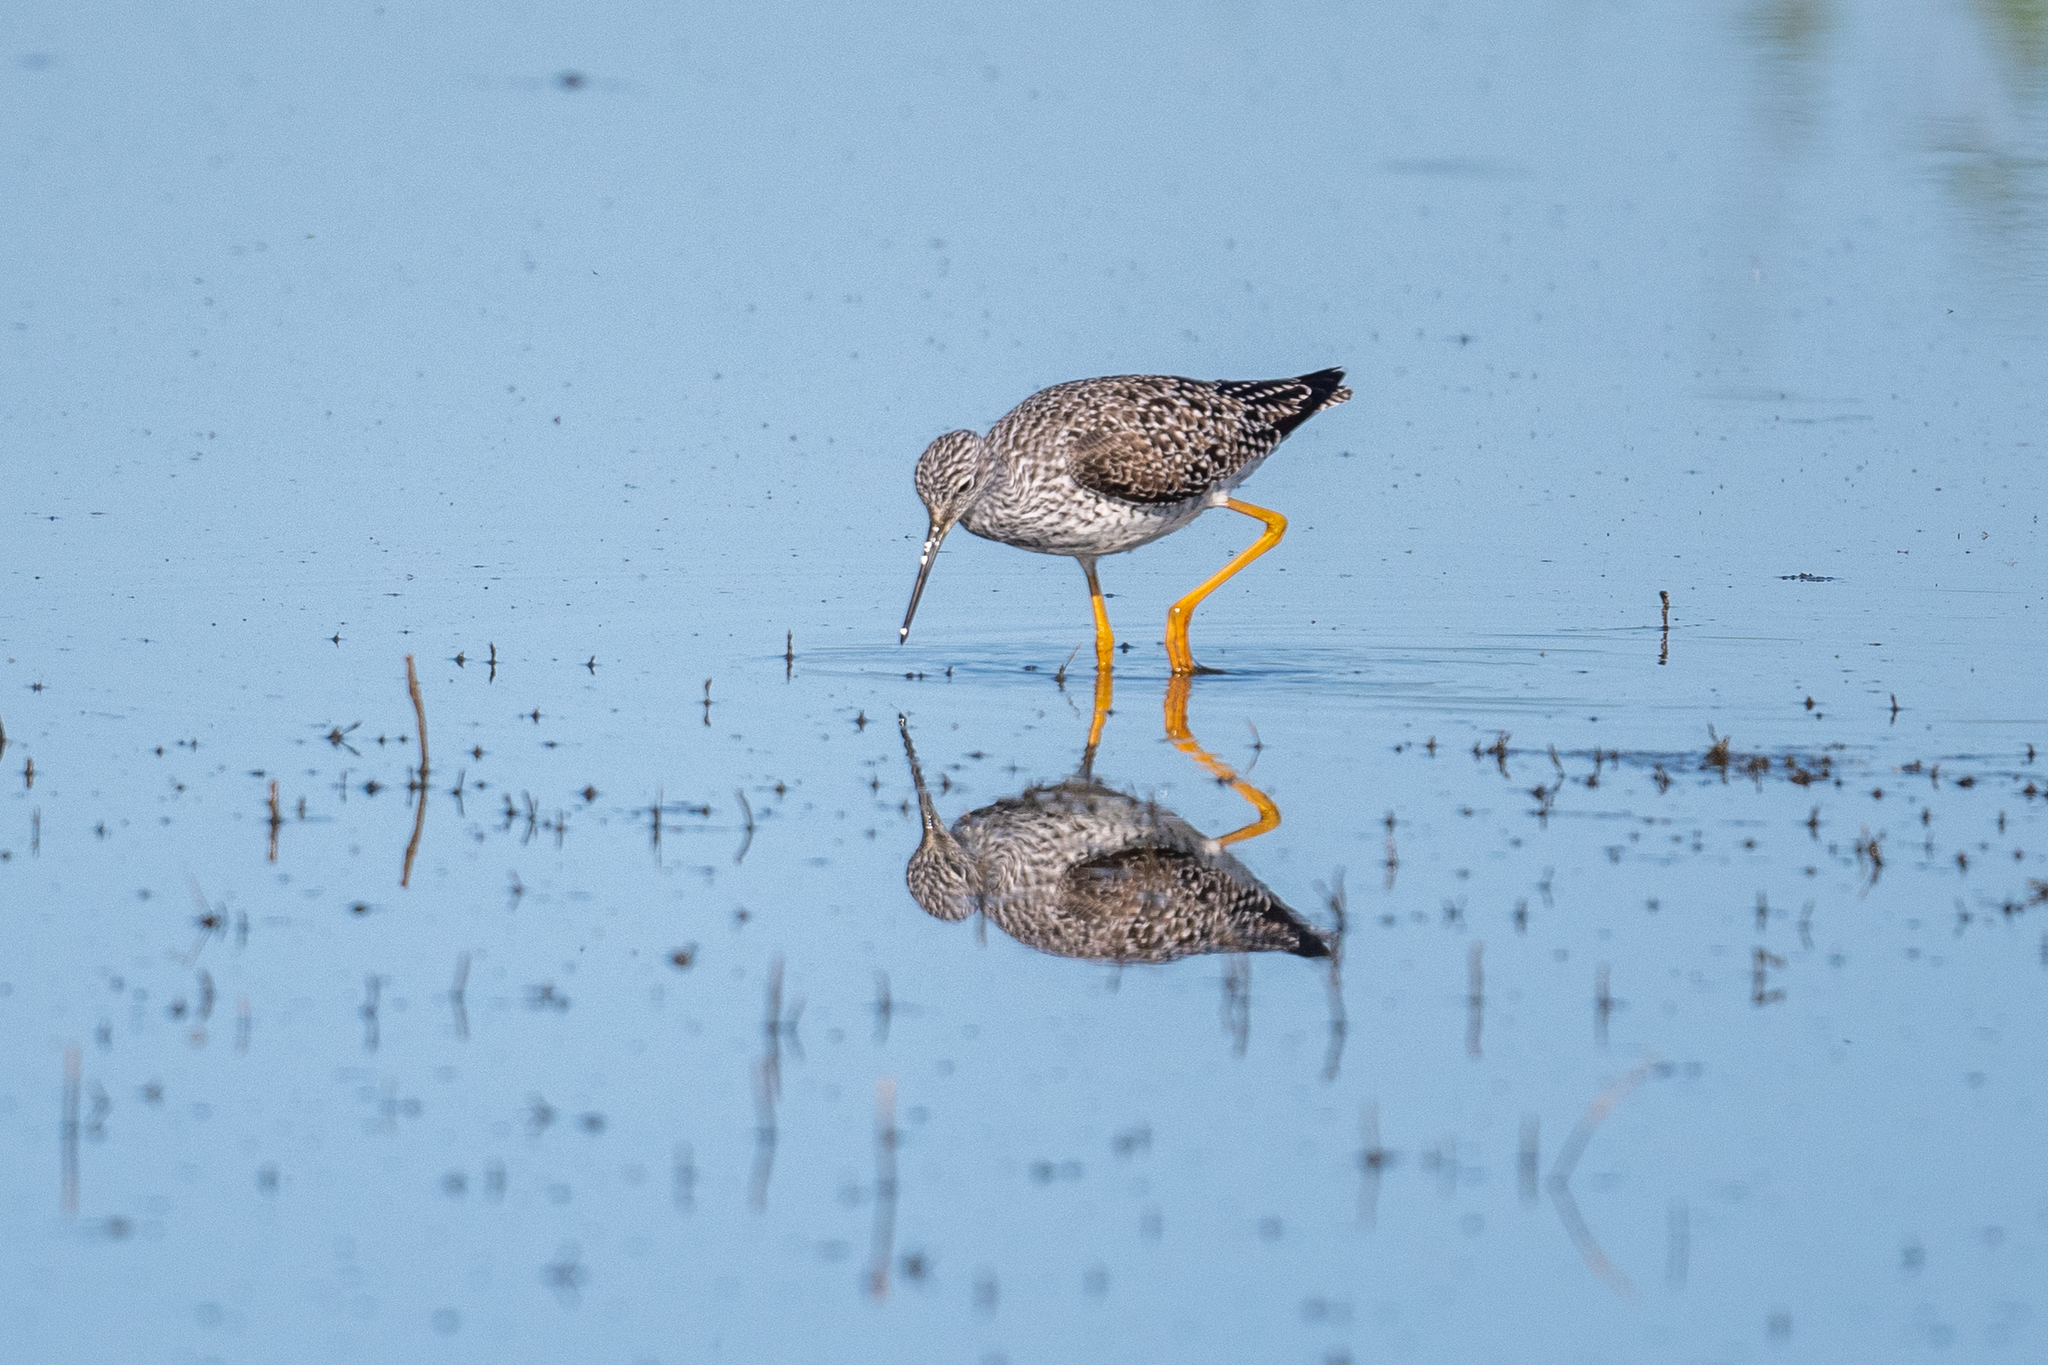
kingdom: Animalia
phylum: Chordata
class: Aves
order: Charadriiformes
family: Scolopacidae
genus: Tringa
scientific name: Tringa melanoleuca
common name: Greater yellowlegs
